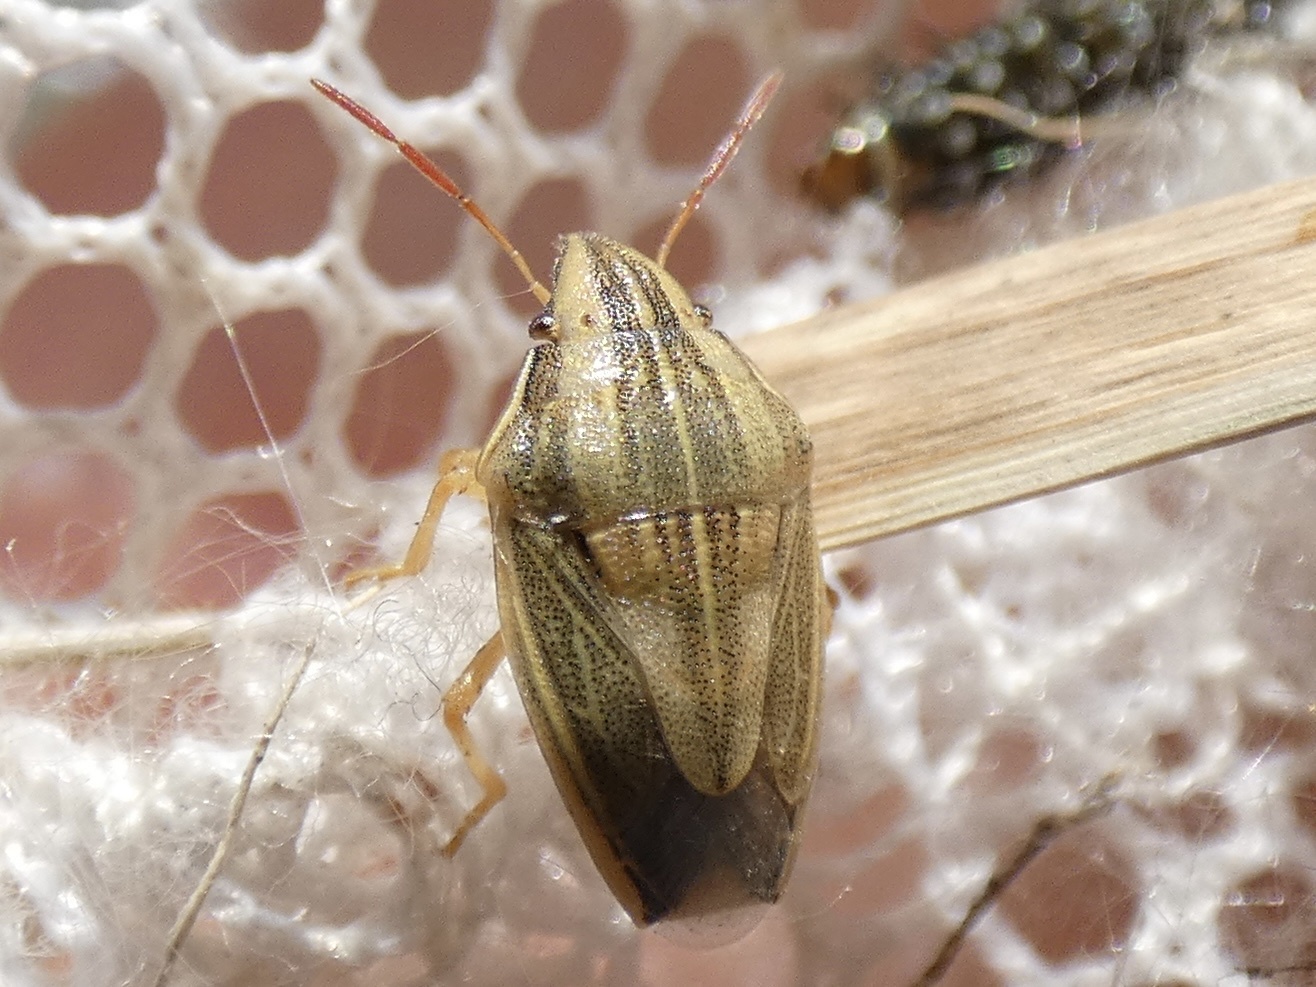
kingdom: Animalia
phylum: Arthropoda
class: Insecta
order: Hemiptera
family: Pentatomidae
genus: Aelia
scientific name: Aelia acuminata
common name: Bishop's mitre
